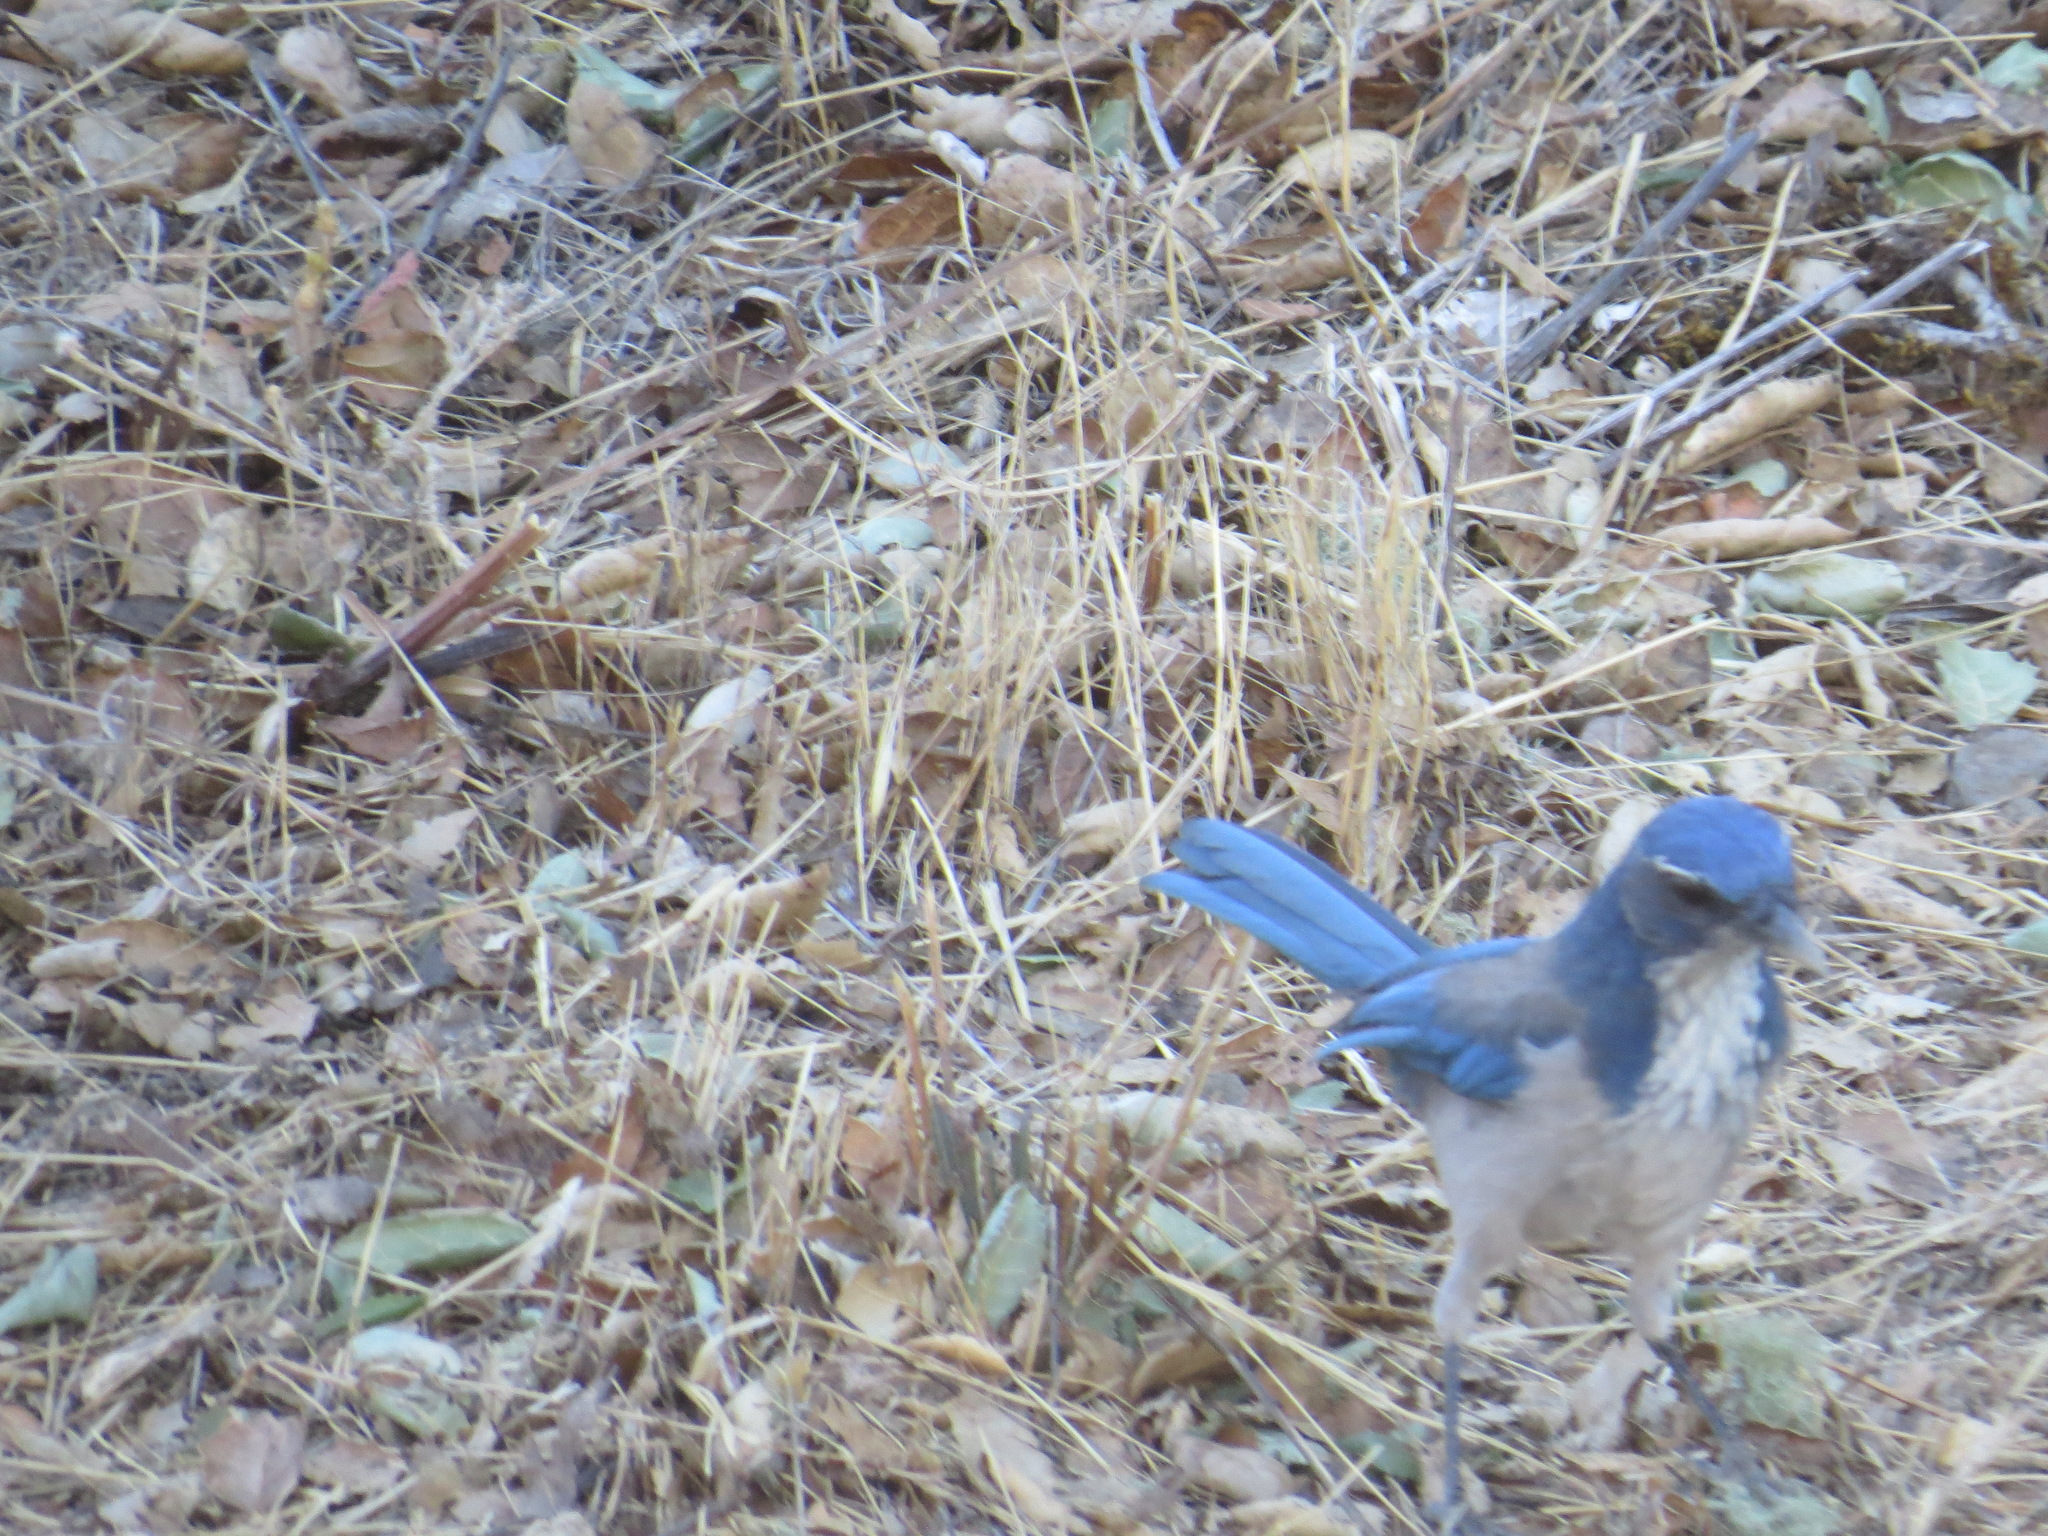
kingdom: Animalia
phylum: Chordata
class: Aves
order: Passeriformes
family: Corvidae
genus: Aphelocoma
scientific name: Aphelocoma californica
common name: California scrub-jay
